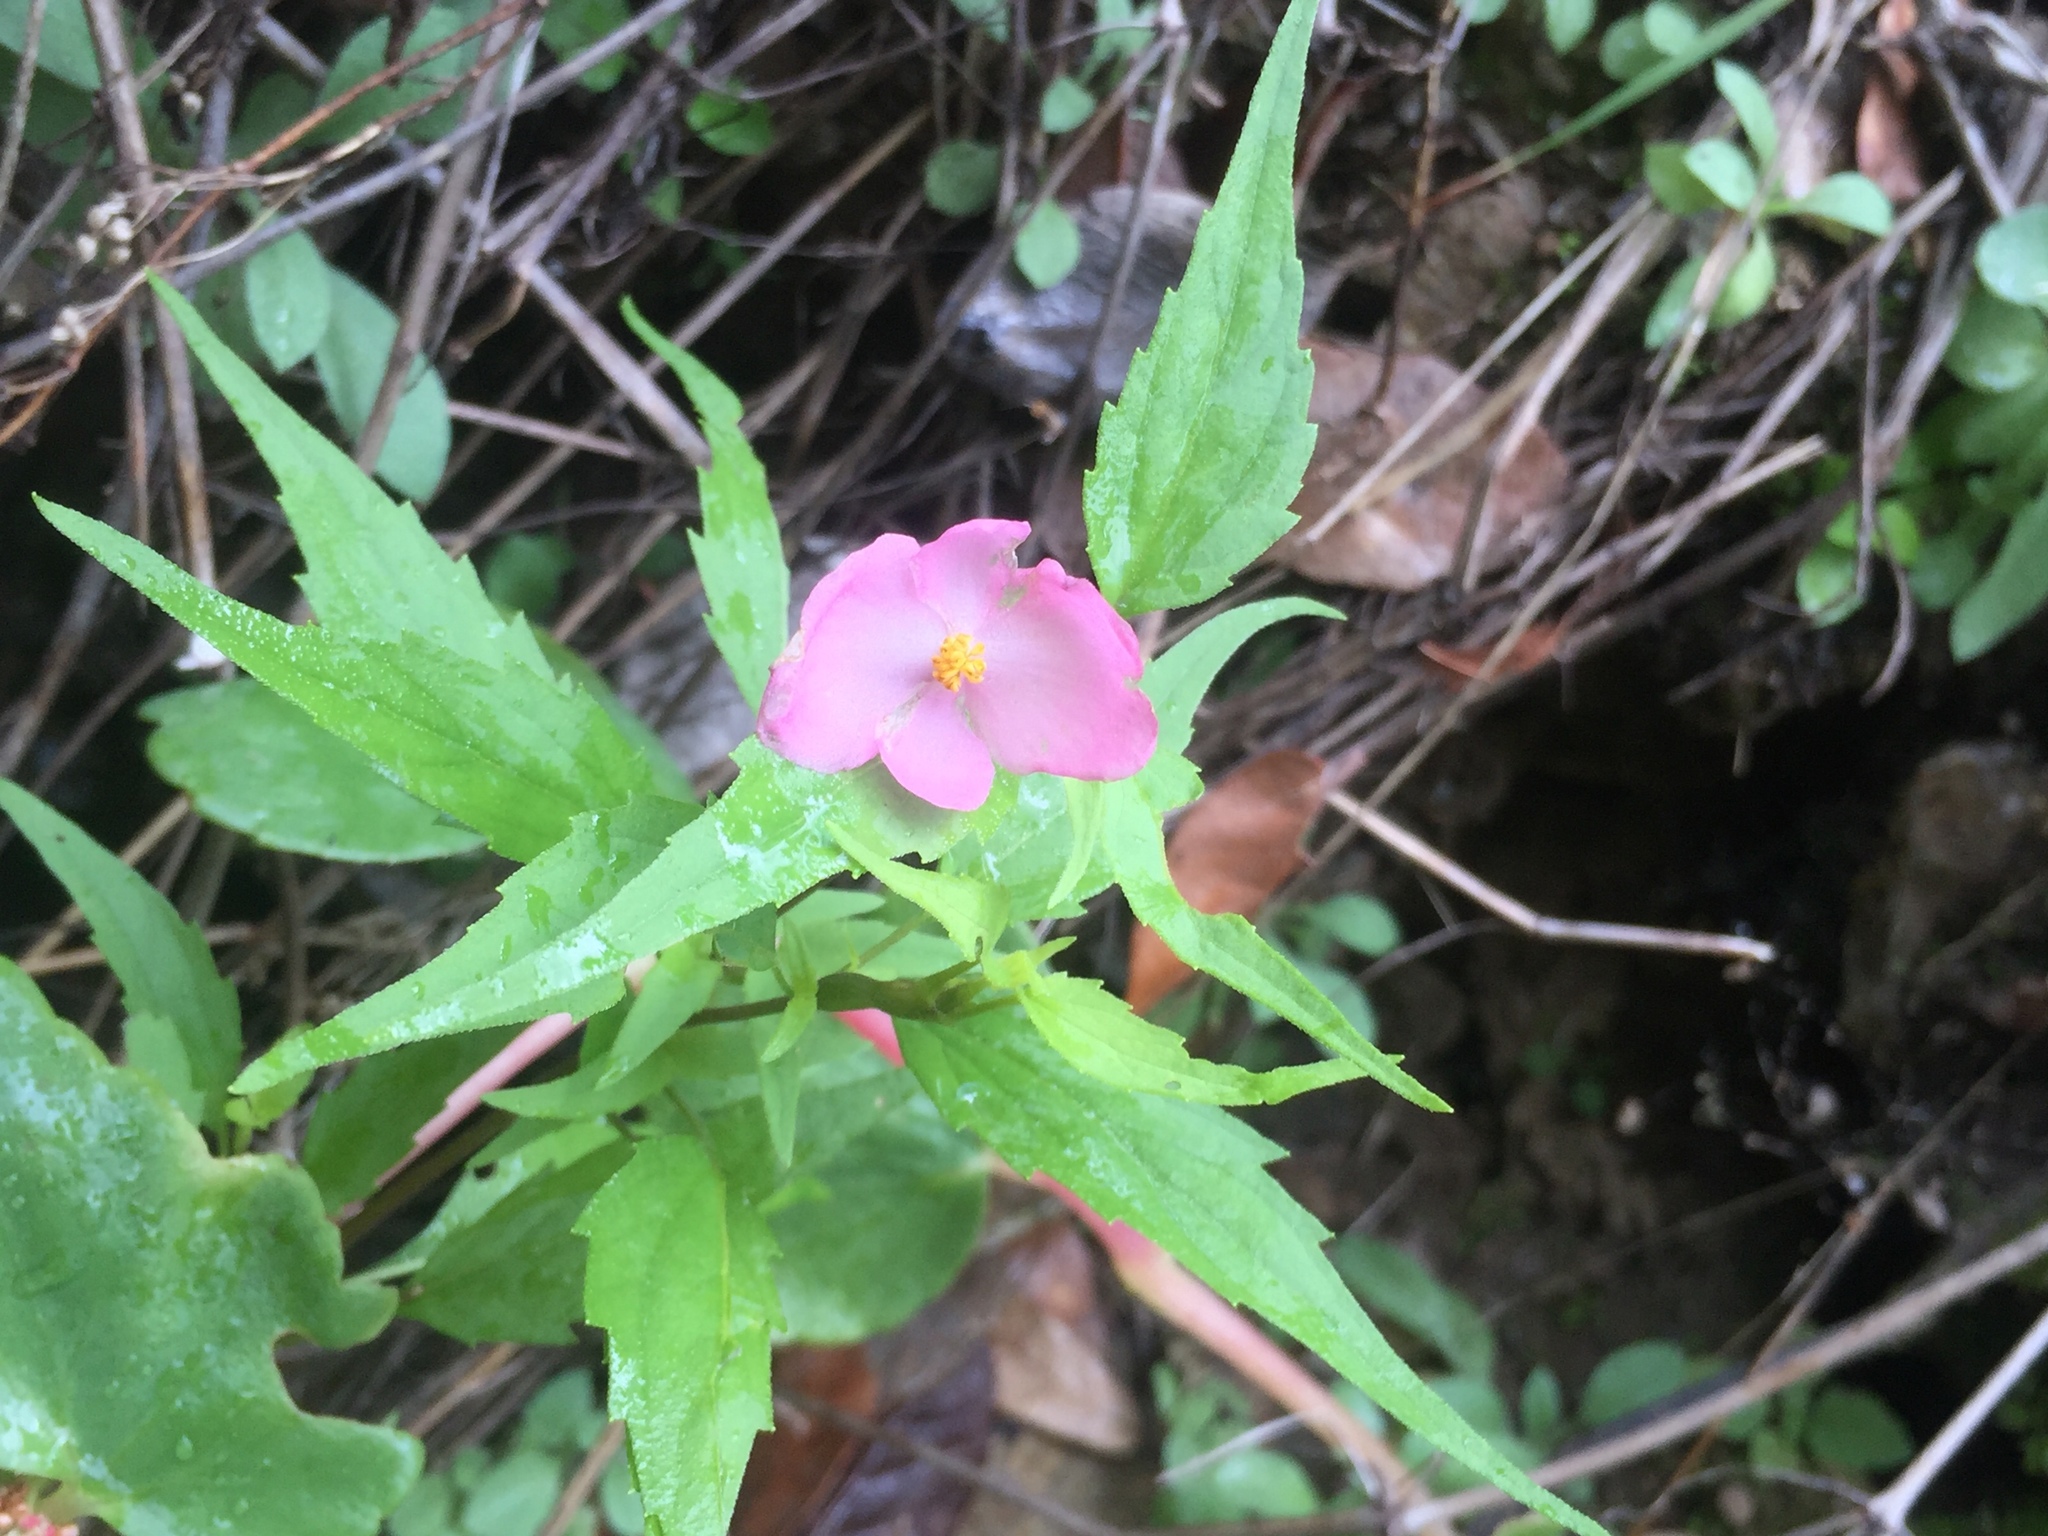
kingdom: Plantae
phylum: Tracheophyta
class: Magnoliopsida
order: Cucurbitales
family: Begoniaceae
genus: Begonia
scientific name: Begonia gracilis
